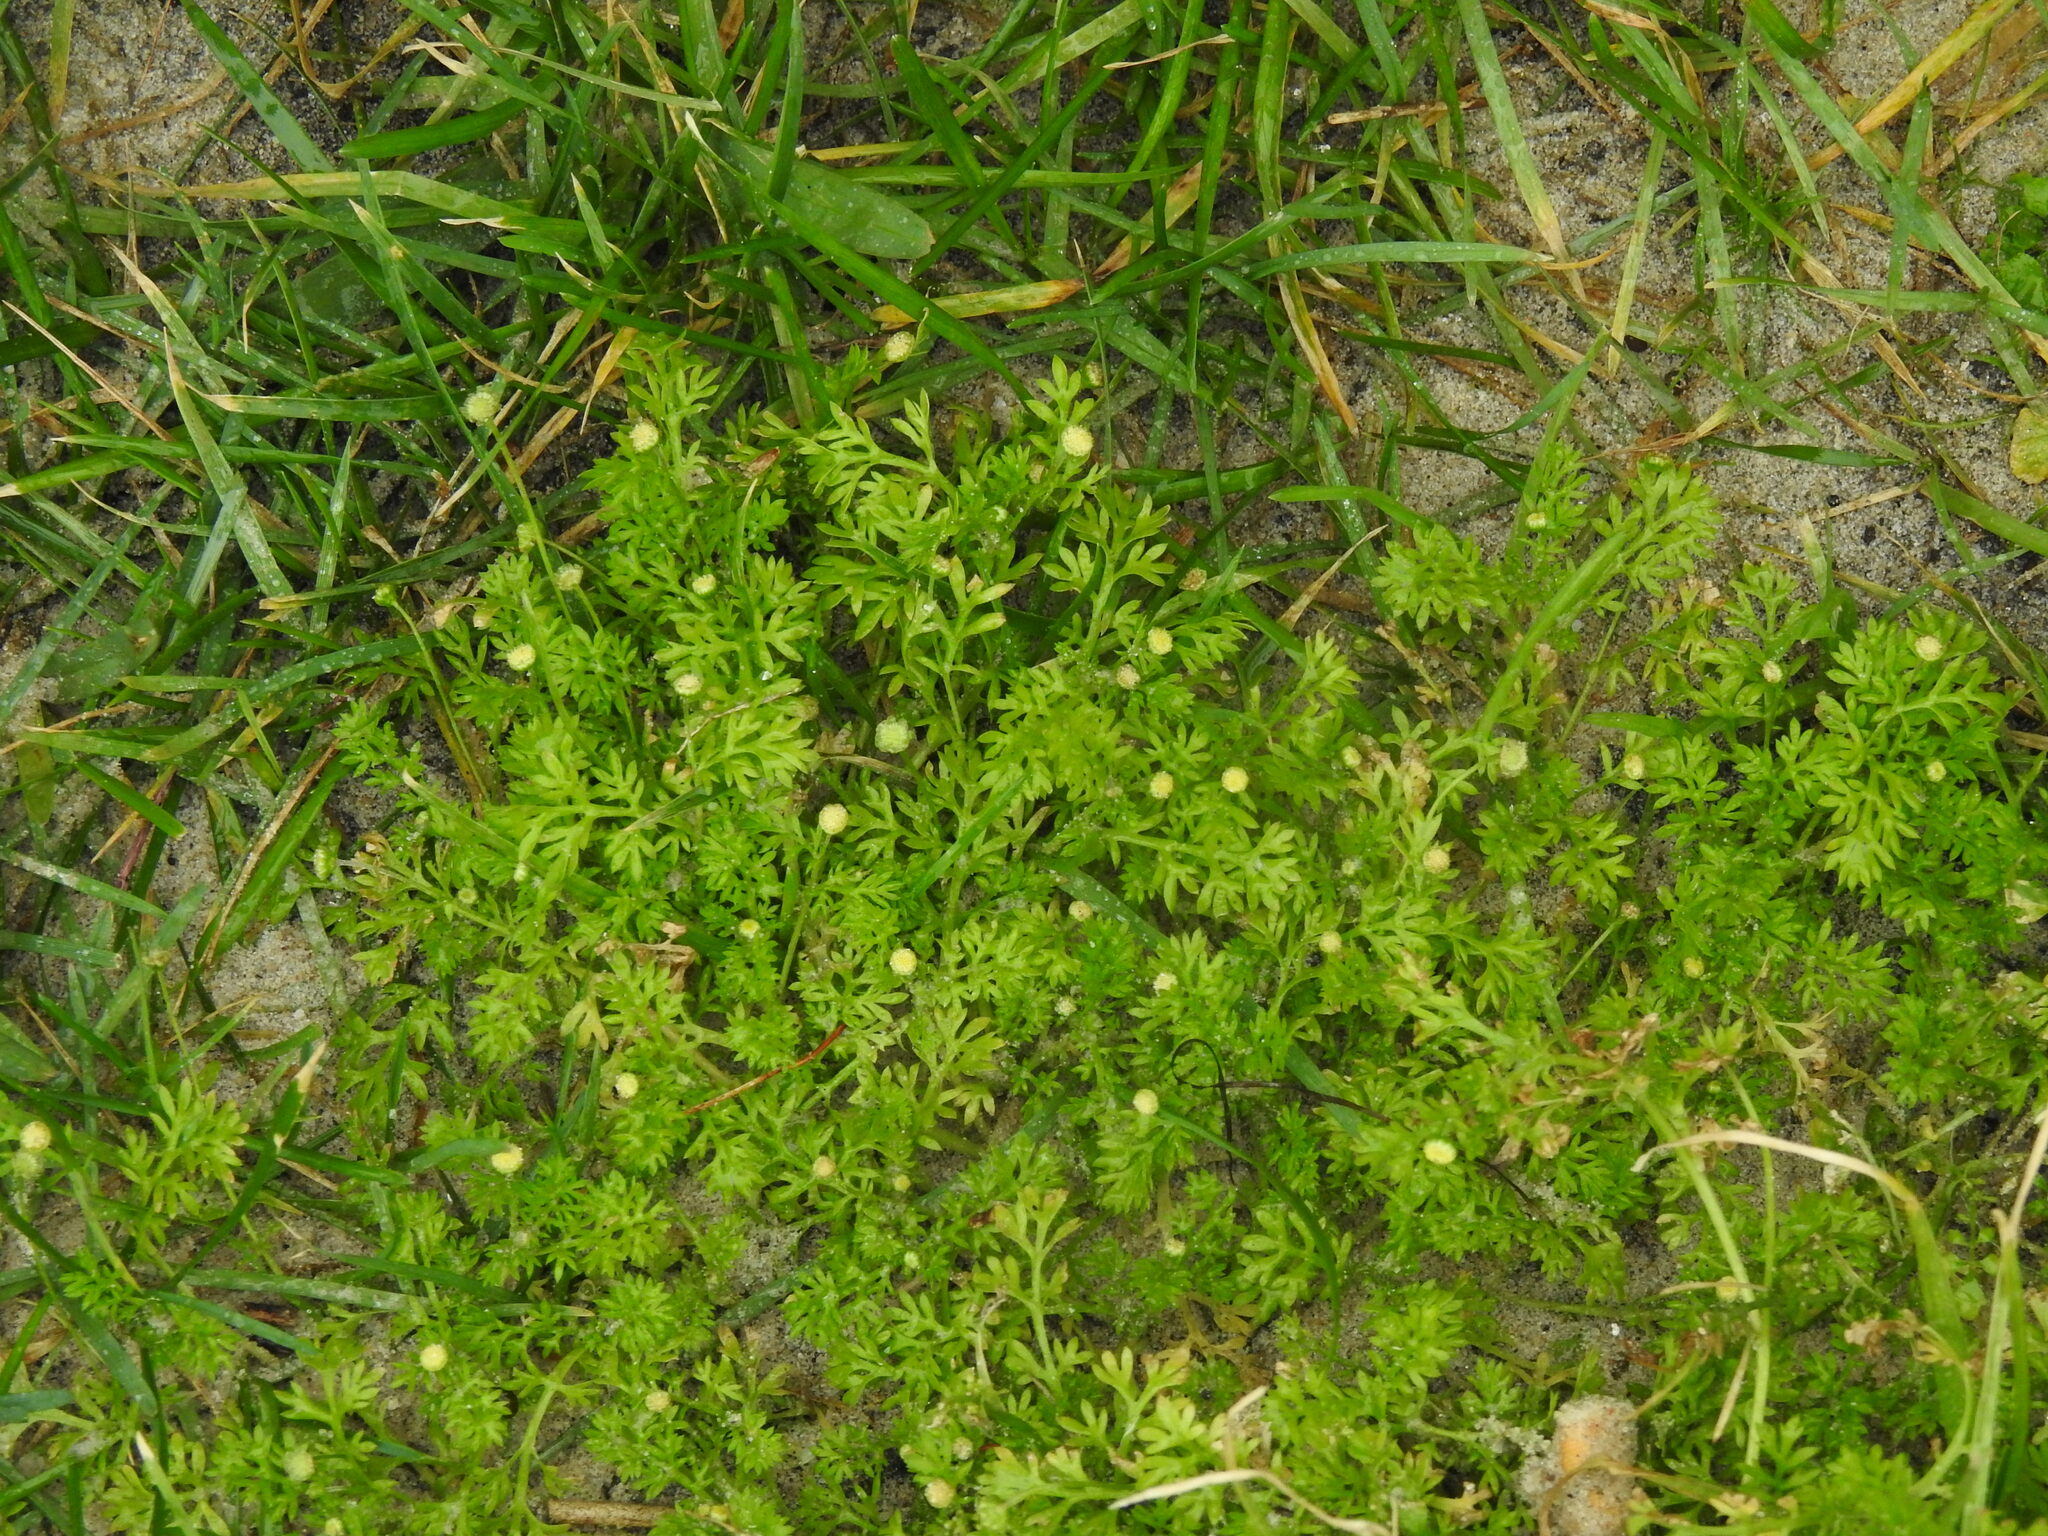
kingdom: Plantae
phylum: Tracheophyta
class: Magnoliopsida
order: Asterales
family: Asteraceae
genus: Cotula
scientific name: Cotula australis
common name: Australian waterbuttons
